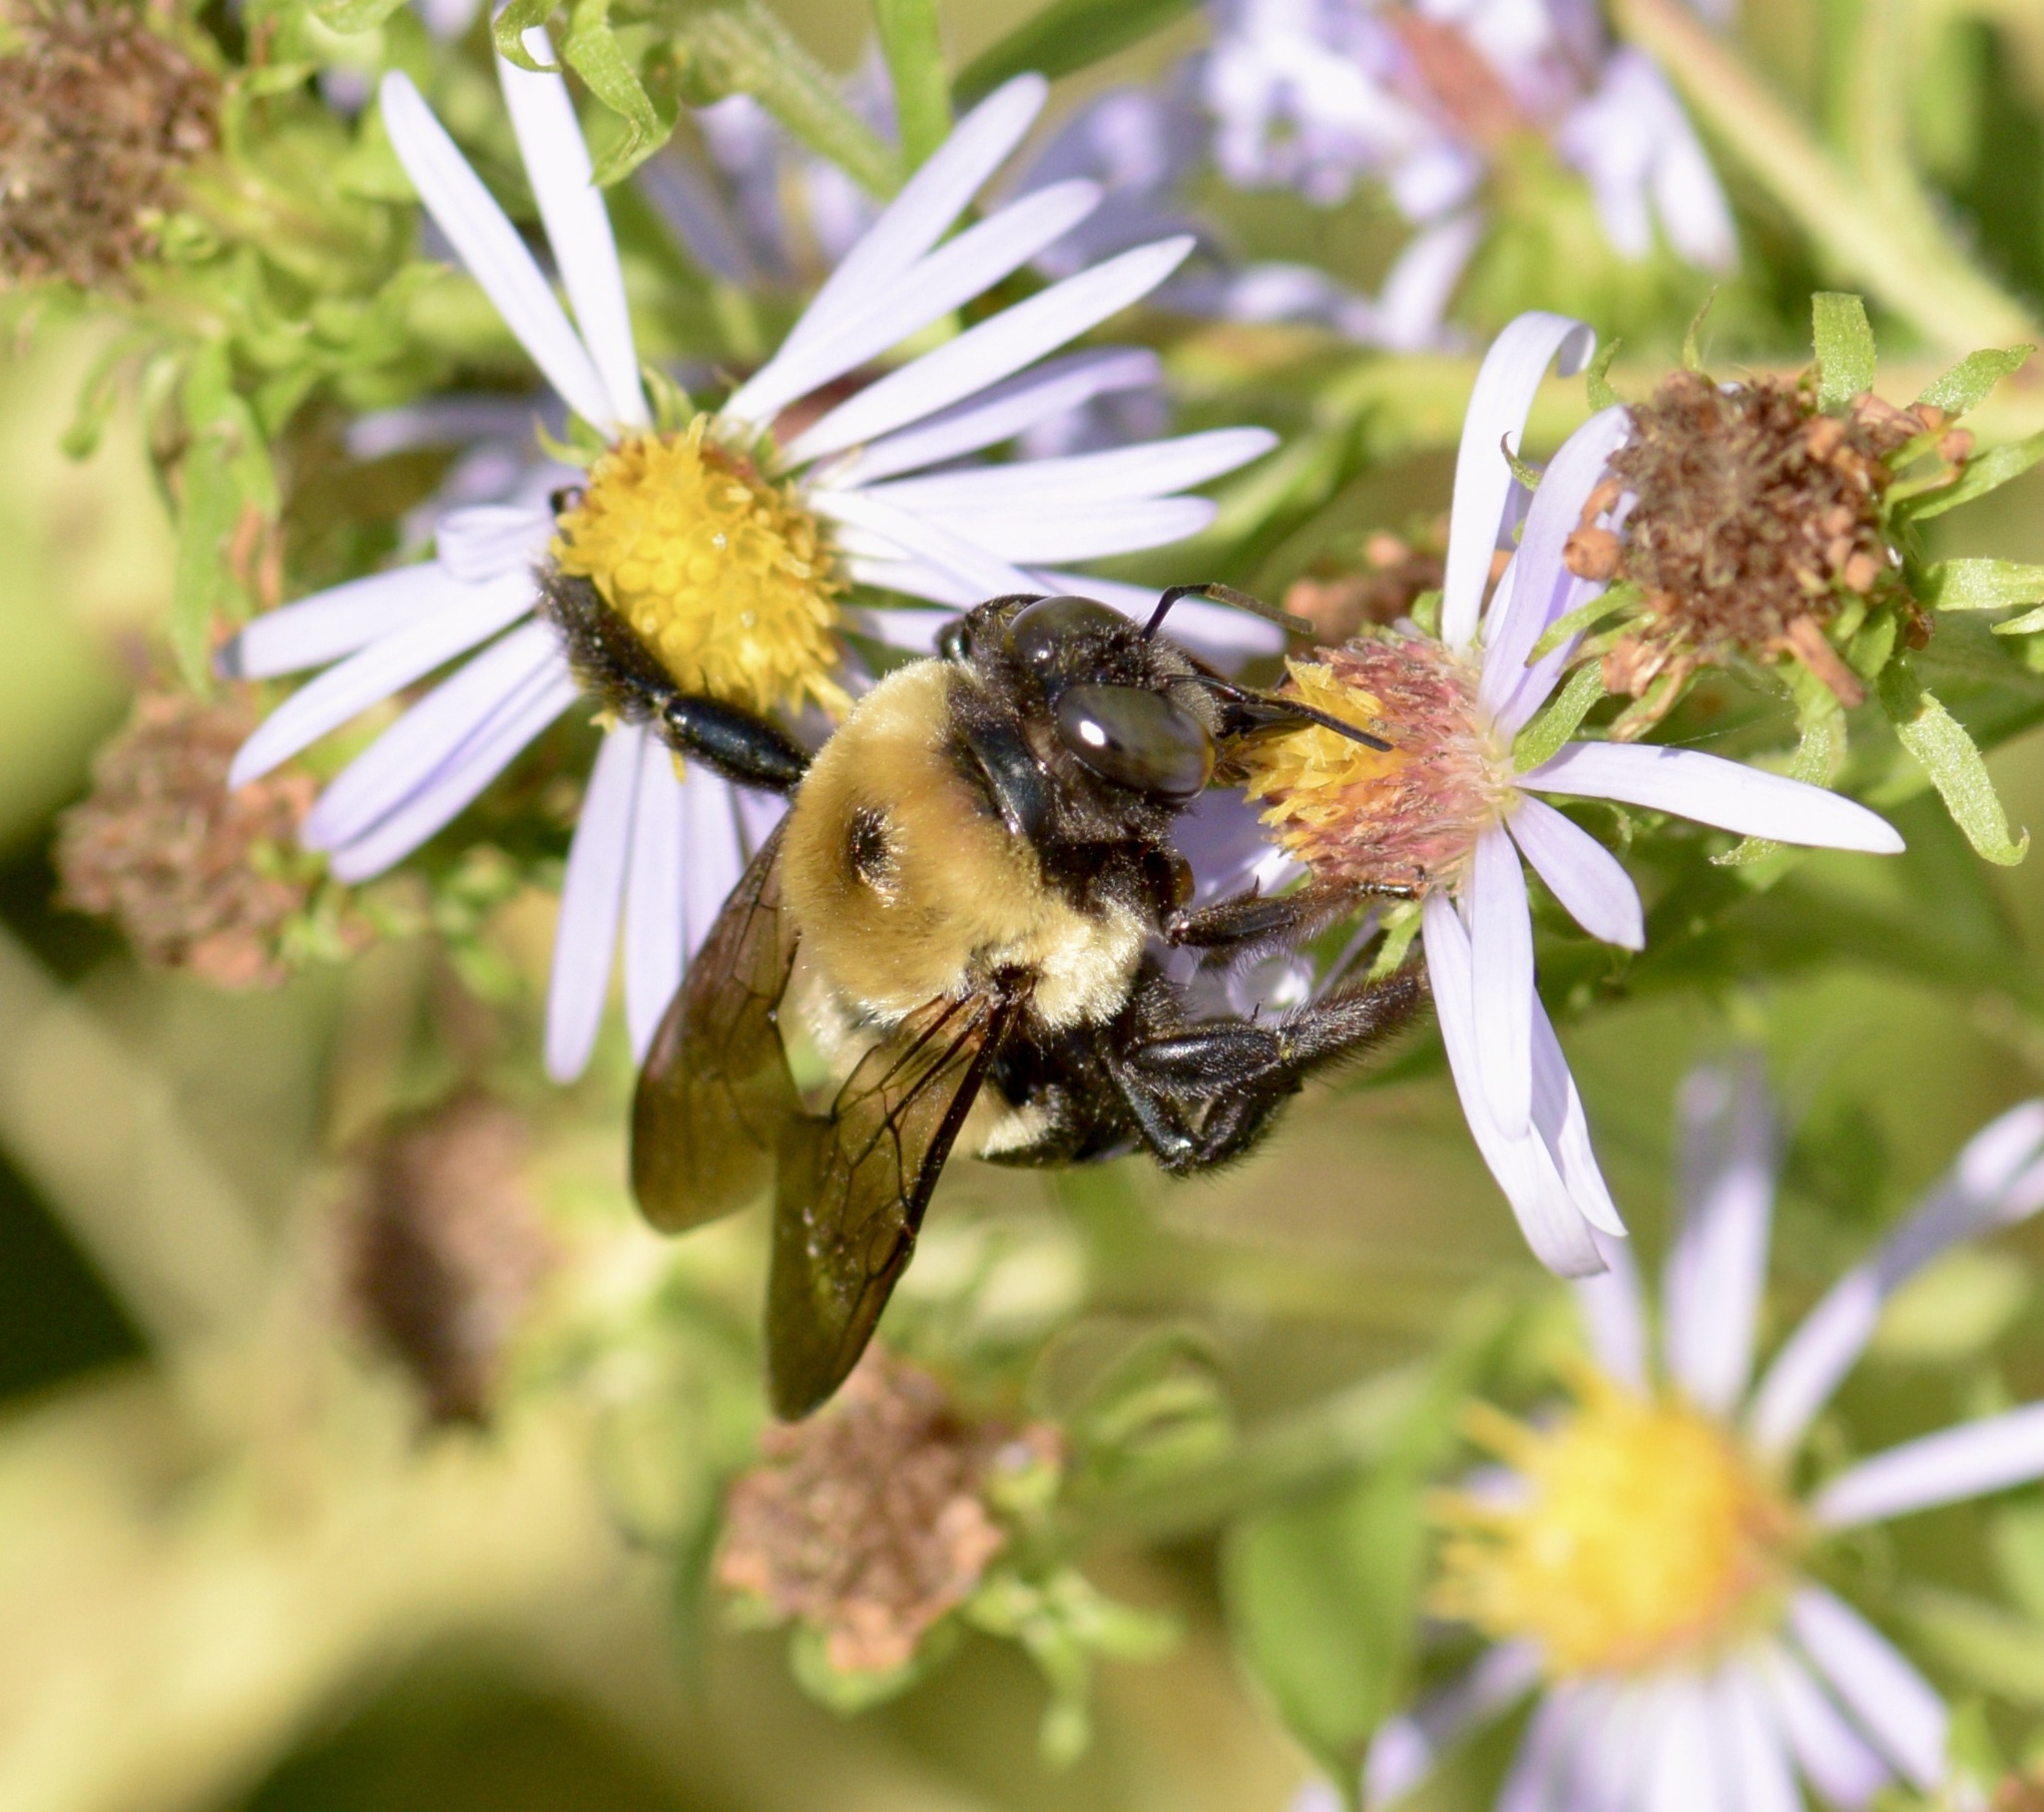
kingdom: Animalia
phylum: Arthropoda
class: Insecta
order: Hymenoptera
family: Apidae
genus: Xylocopa
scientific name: Xylocopa virginica
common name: Carpenter bee
